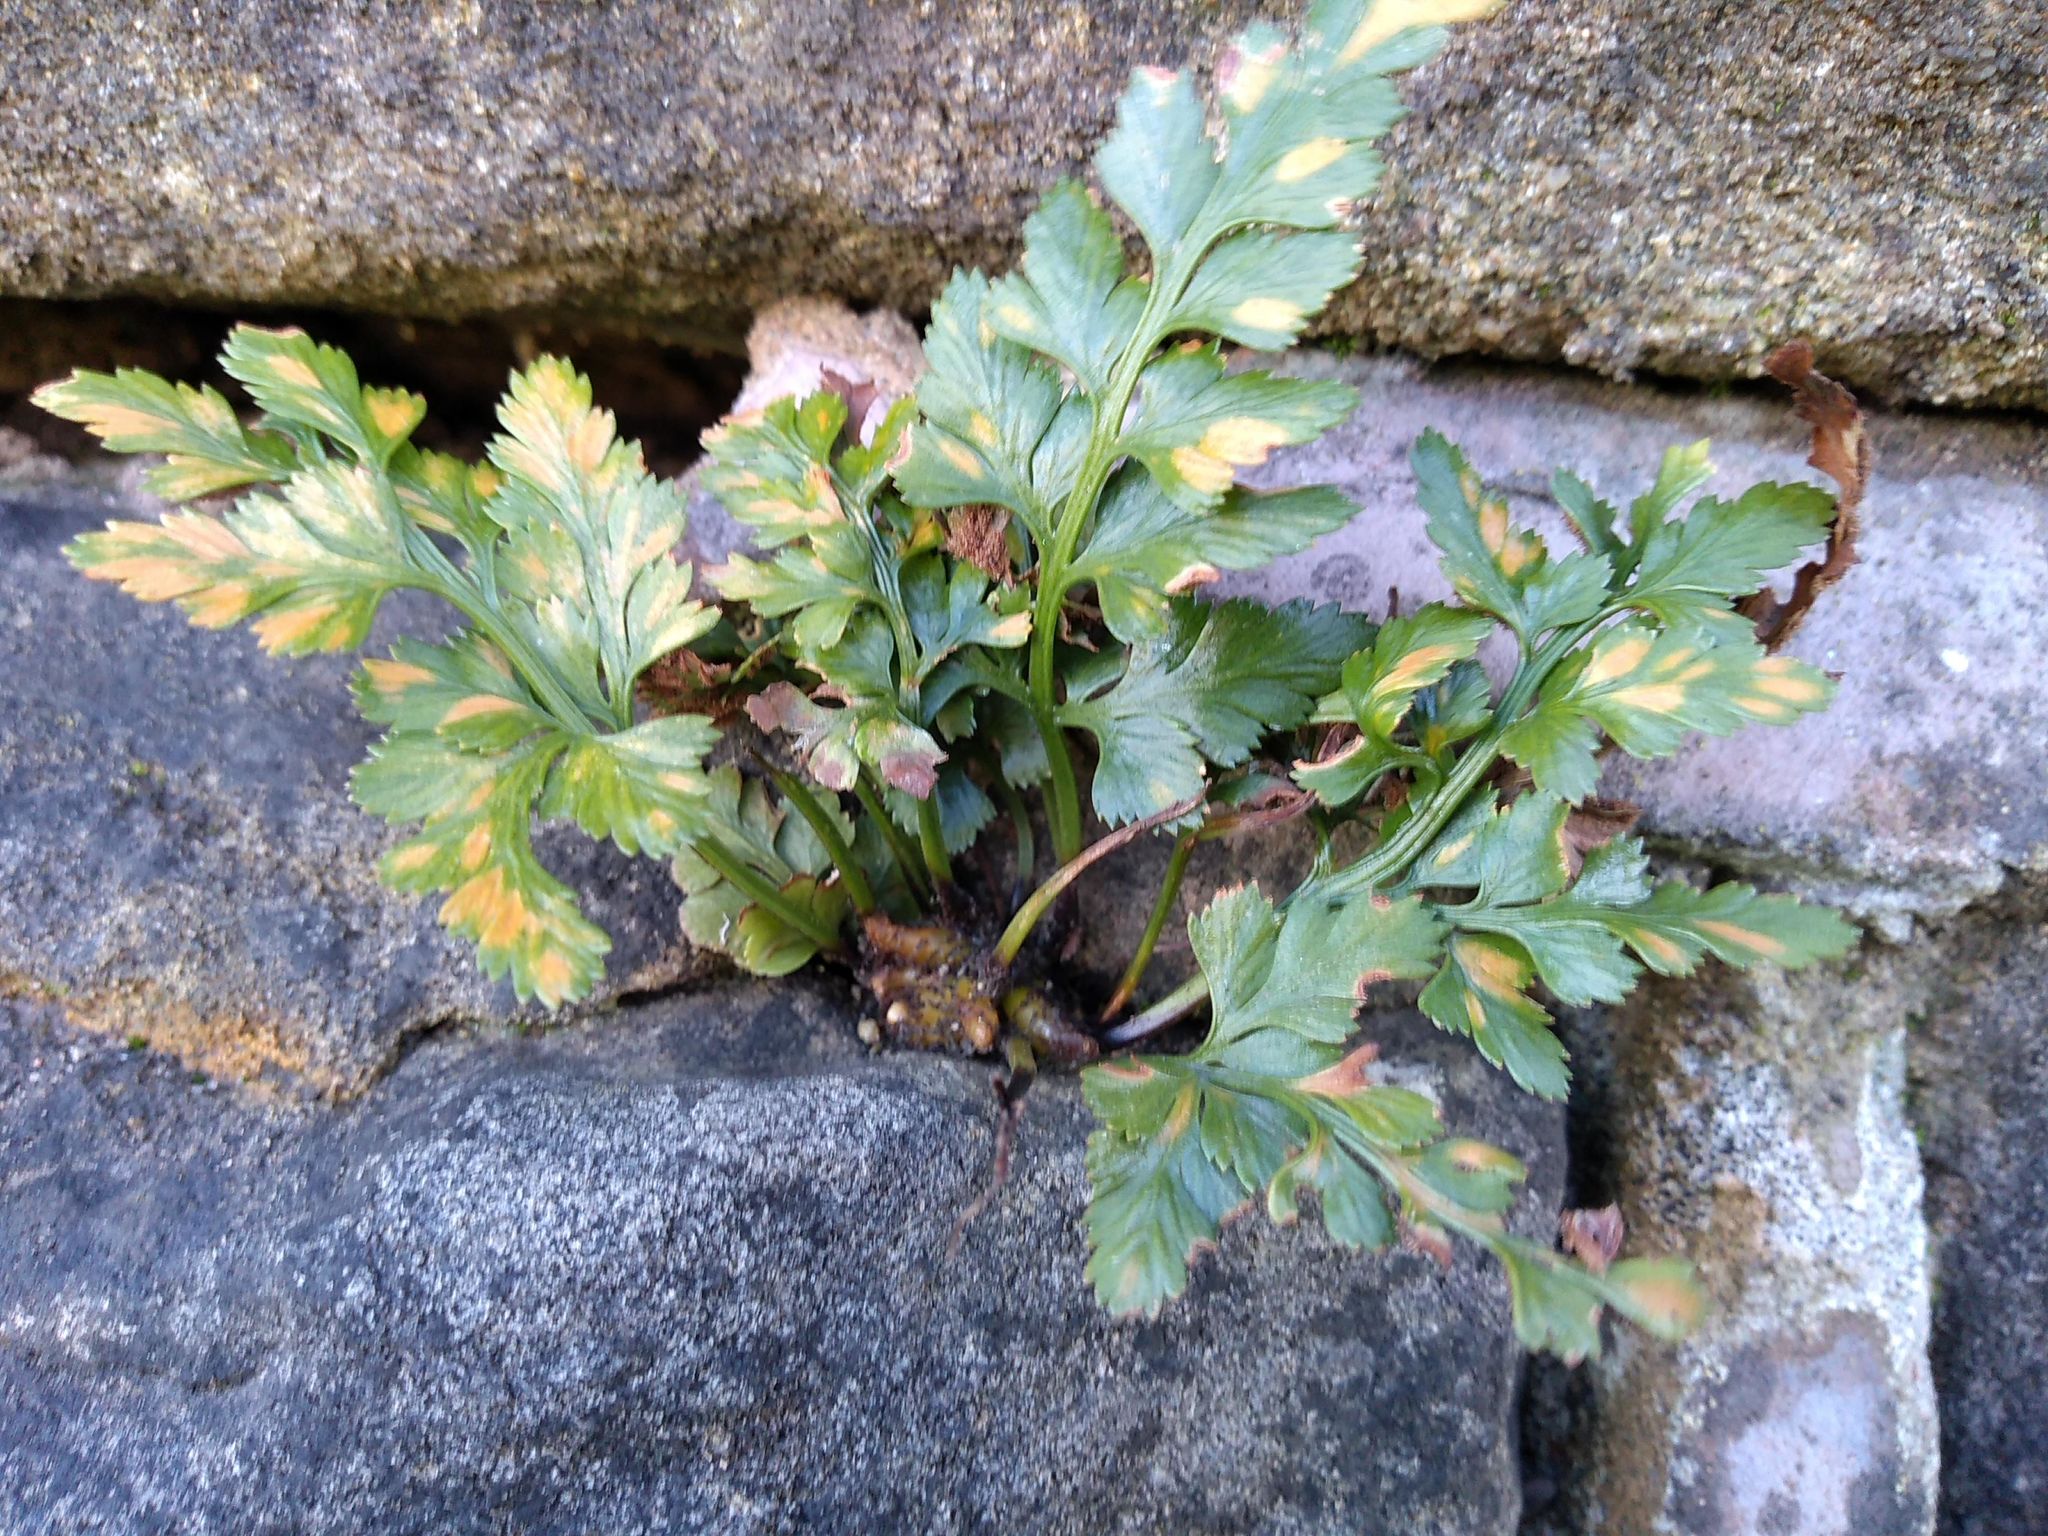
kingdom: Plantae
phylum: Tracheophyta
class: Polypodiopsida
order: Polypodiales
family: Aspleniaceae
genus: Asplenium
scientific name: Asplenium adiantum-nigrum
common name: Black spleenwort
